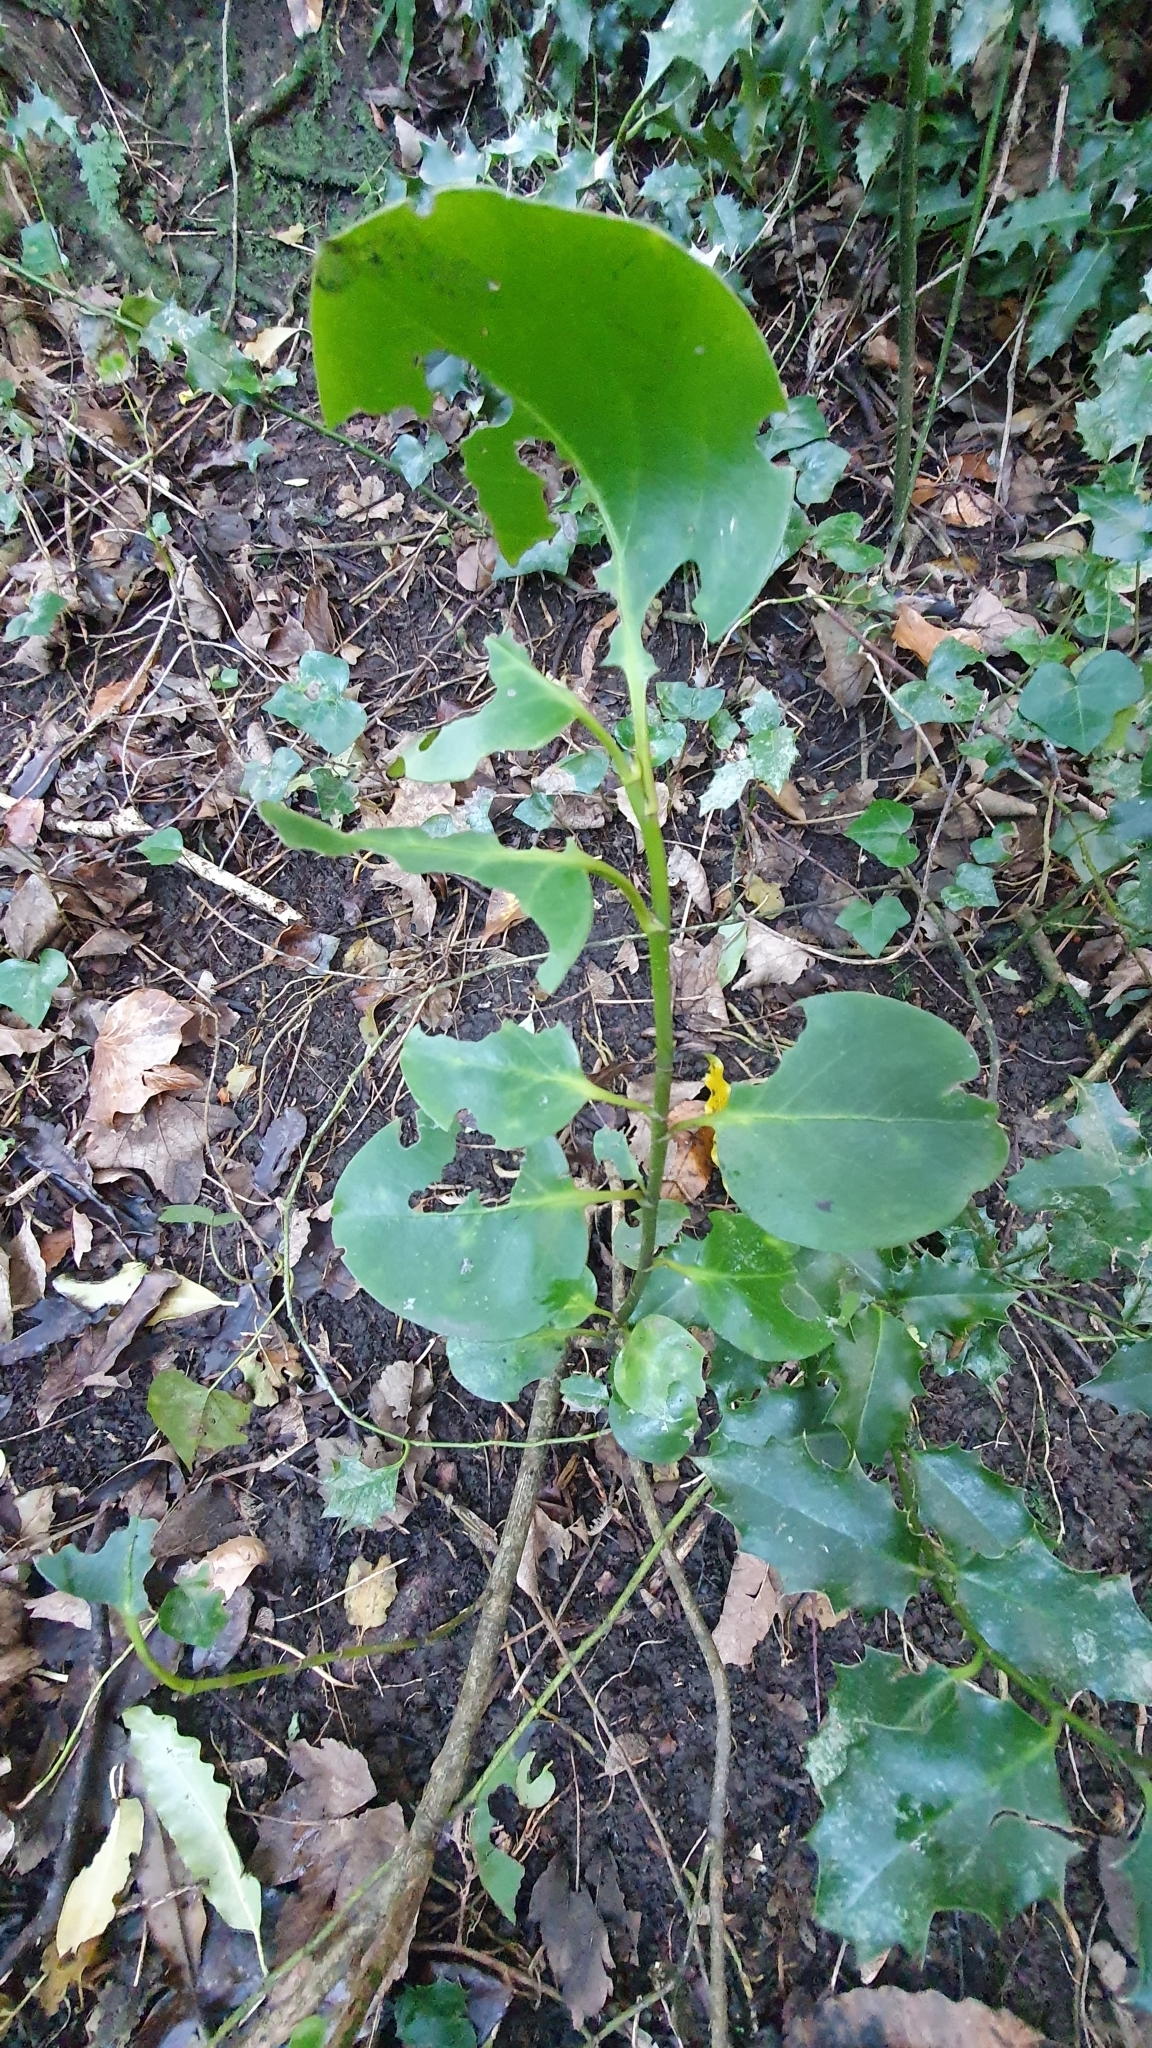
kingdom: Plantae
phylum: Tracheophyta
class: Magnoliopsida
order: Apiales
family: Griseliniaceae
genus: Griselinia
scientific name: Griselinia littoralis
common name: New zealand broadleaf
